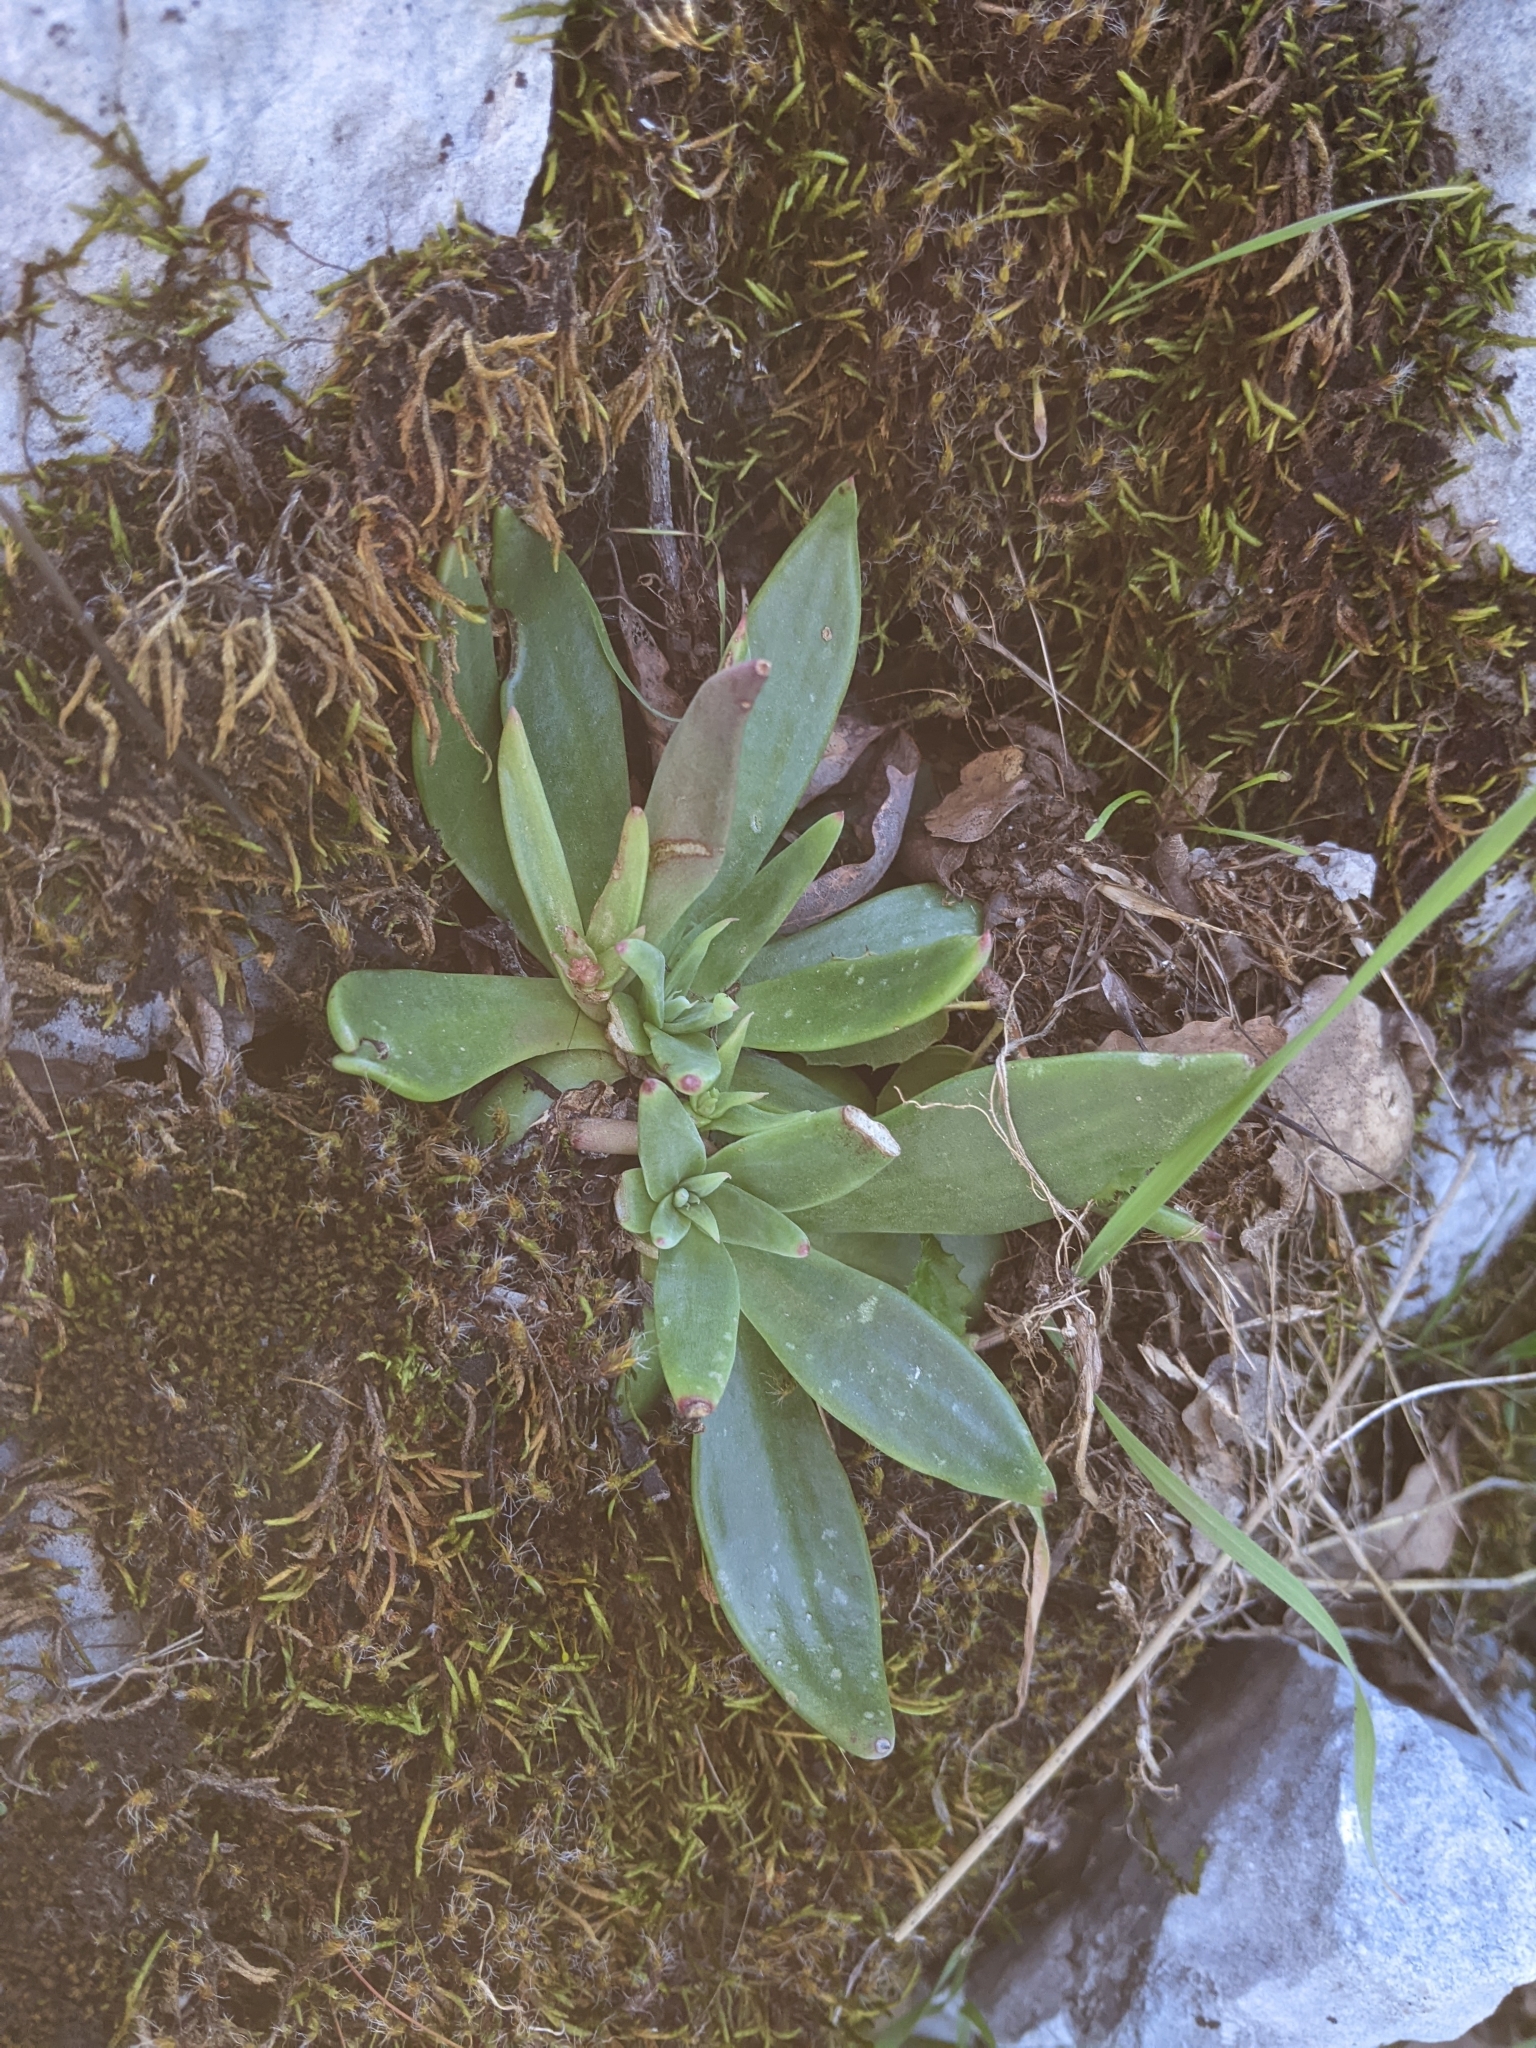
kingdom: Plantae
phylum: Tracheophyta
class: Magnoliopsida
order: Saxifragales
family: Crassulaceae
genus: Dudleya
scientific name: Dudleya cymosa
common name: Canyon dudleya
